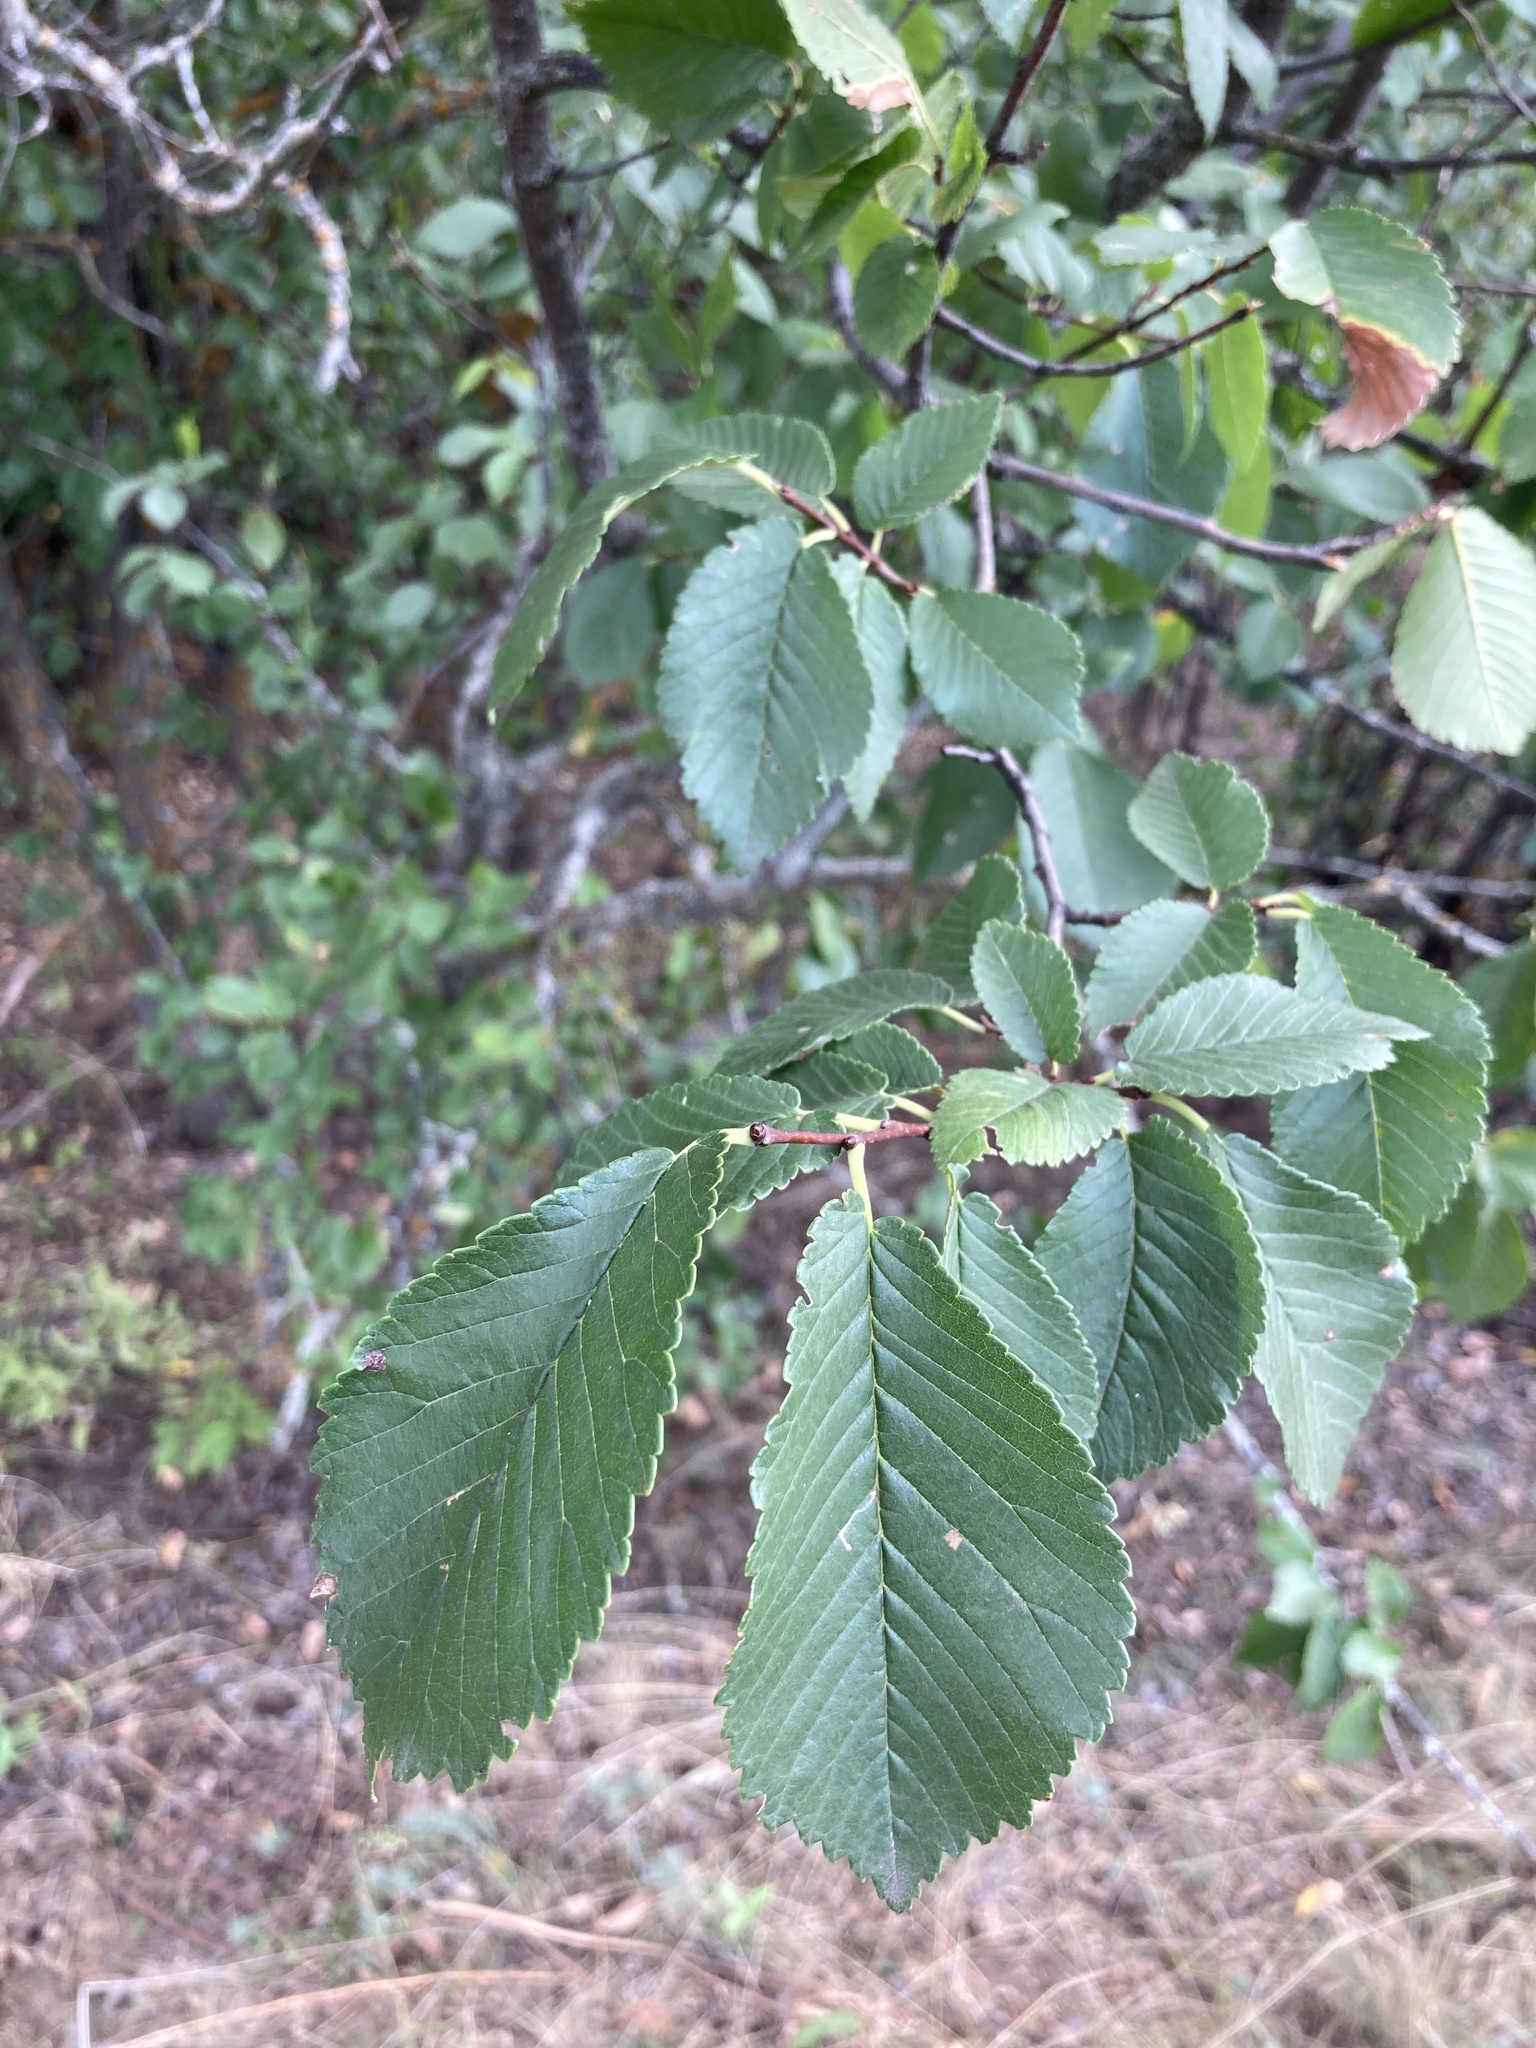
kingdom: Plantae
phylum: Tracheophyta
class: Magnoliopsida
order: Rosales
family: Ulmaceae
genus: Ulmus
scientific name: Ulmus minor
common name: Small-leaved elm
